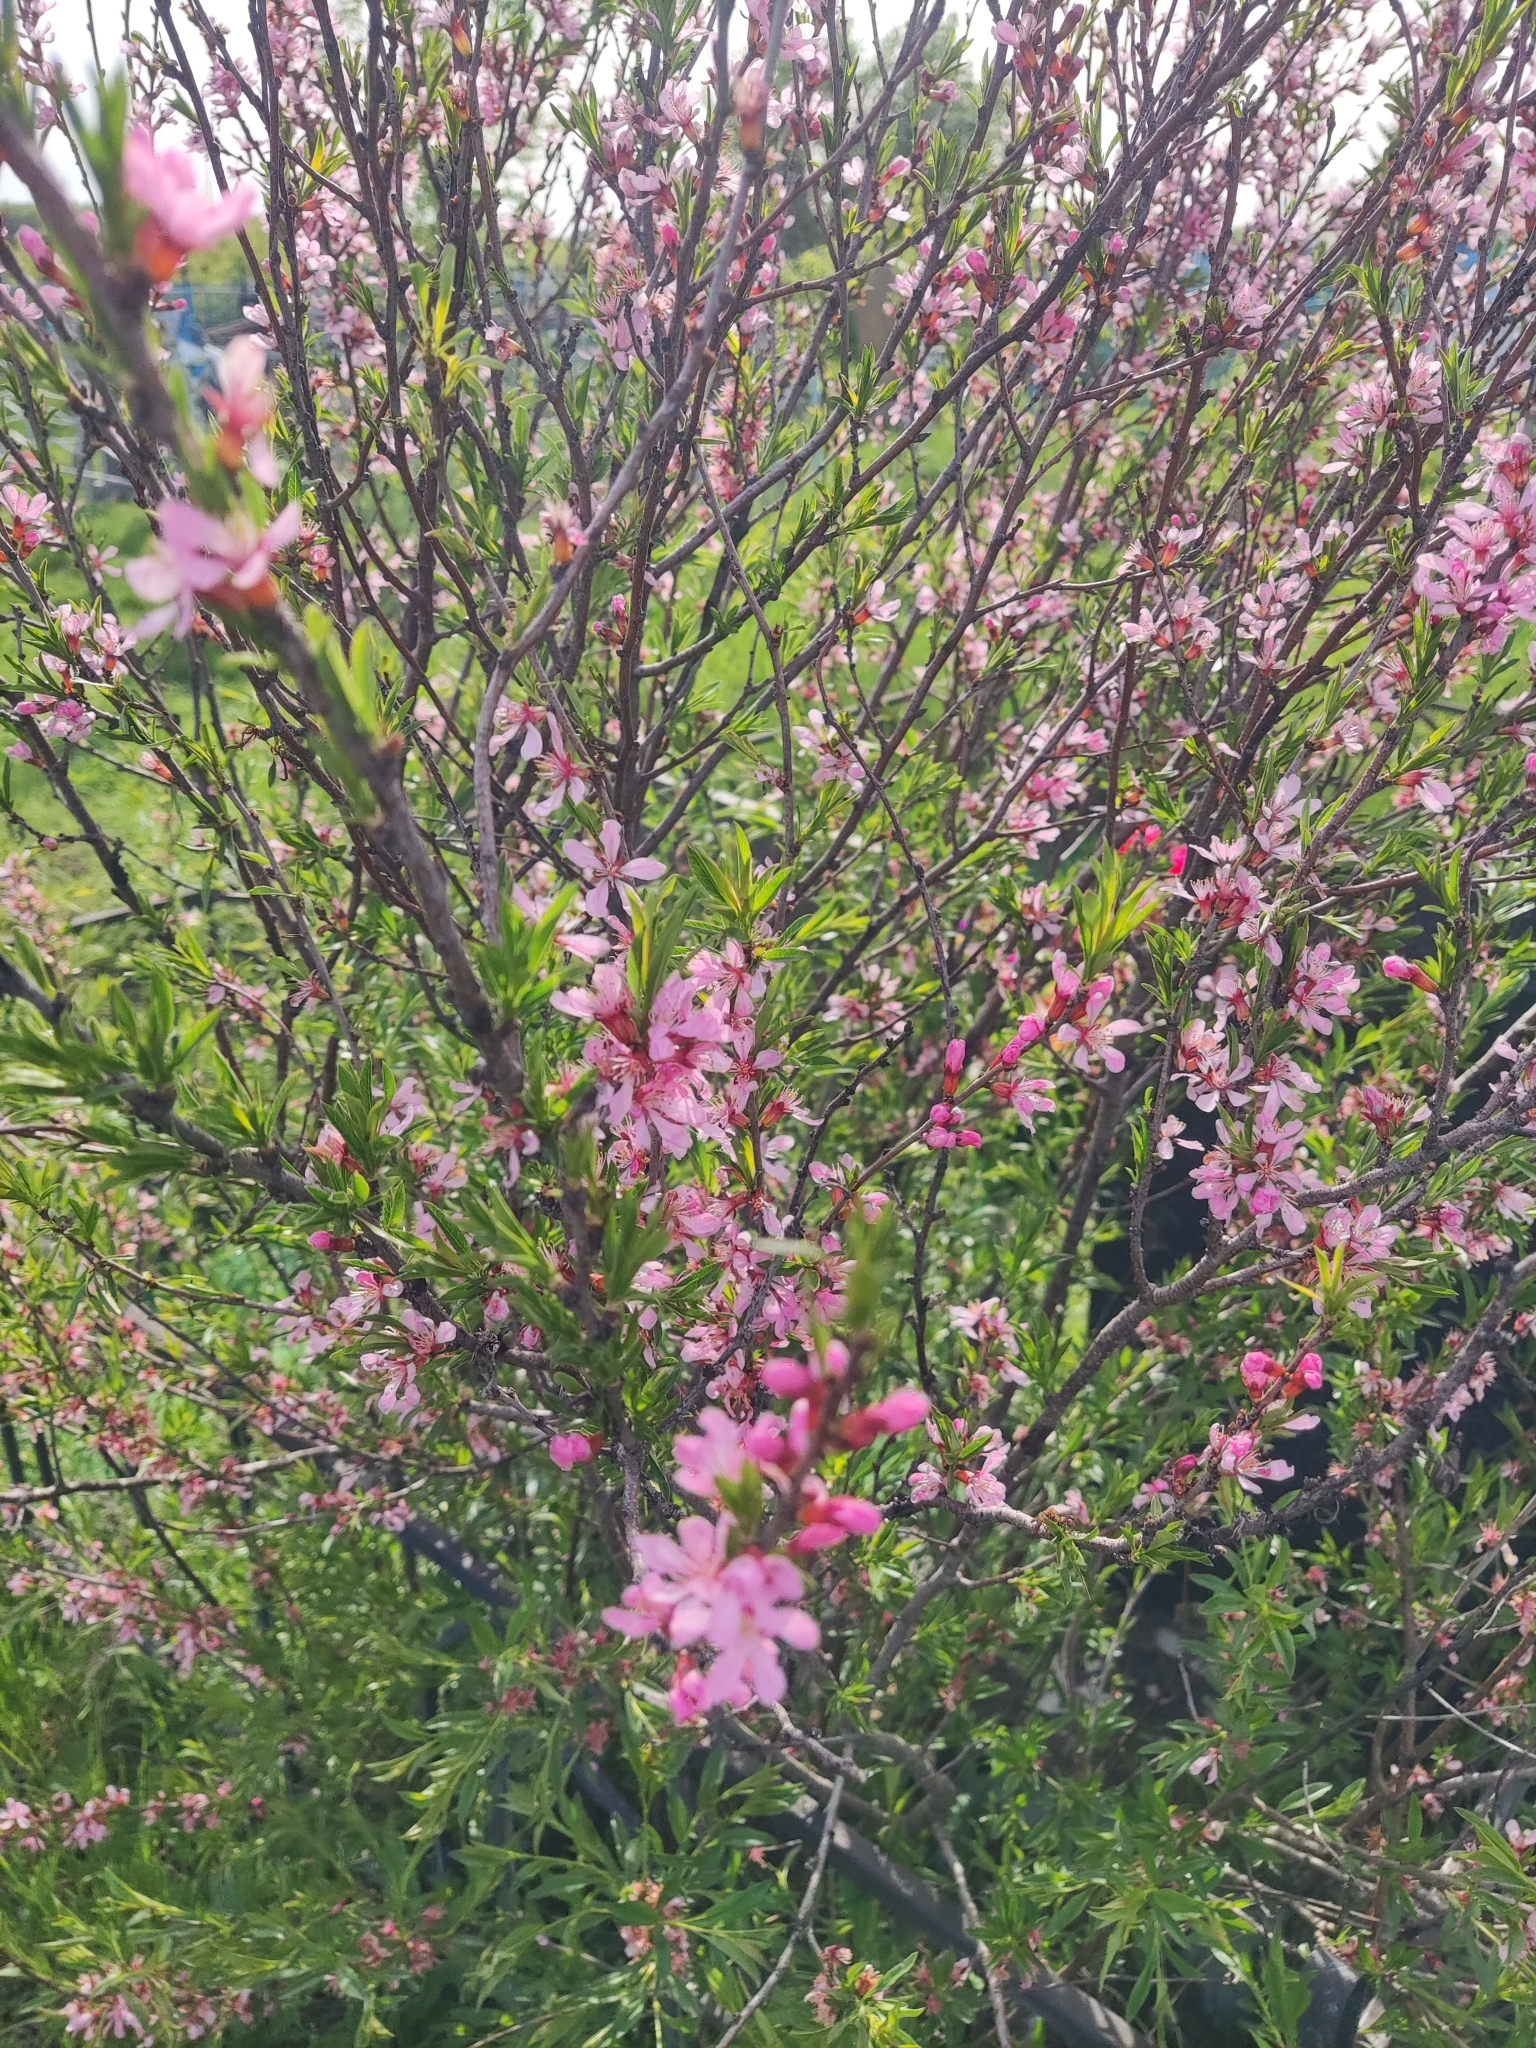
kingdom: Plantae
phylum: Tracheophyta
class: Magnoliopsida
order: Rosales
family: Rosaceae
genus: Prunus
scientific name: Prunus tenella
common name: Dwarf russian almond
